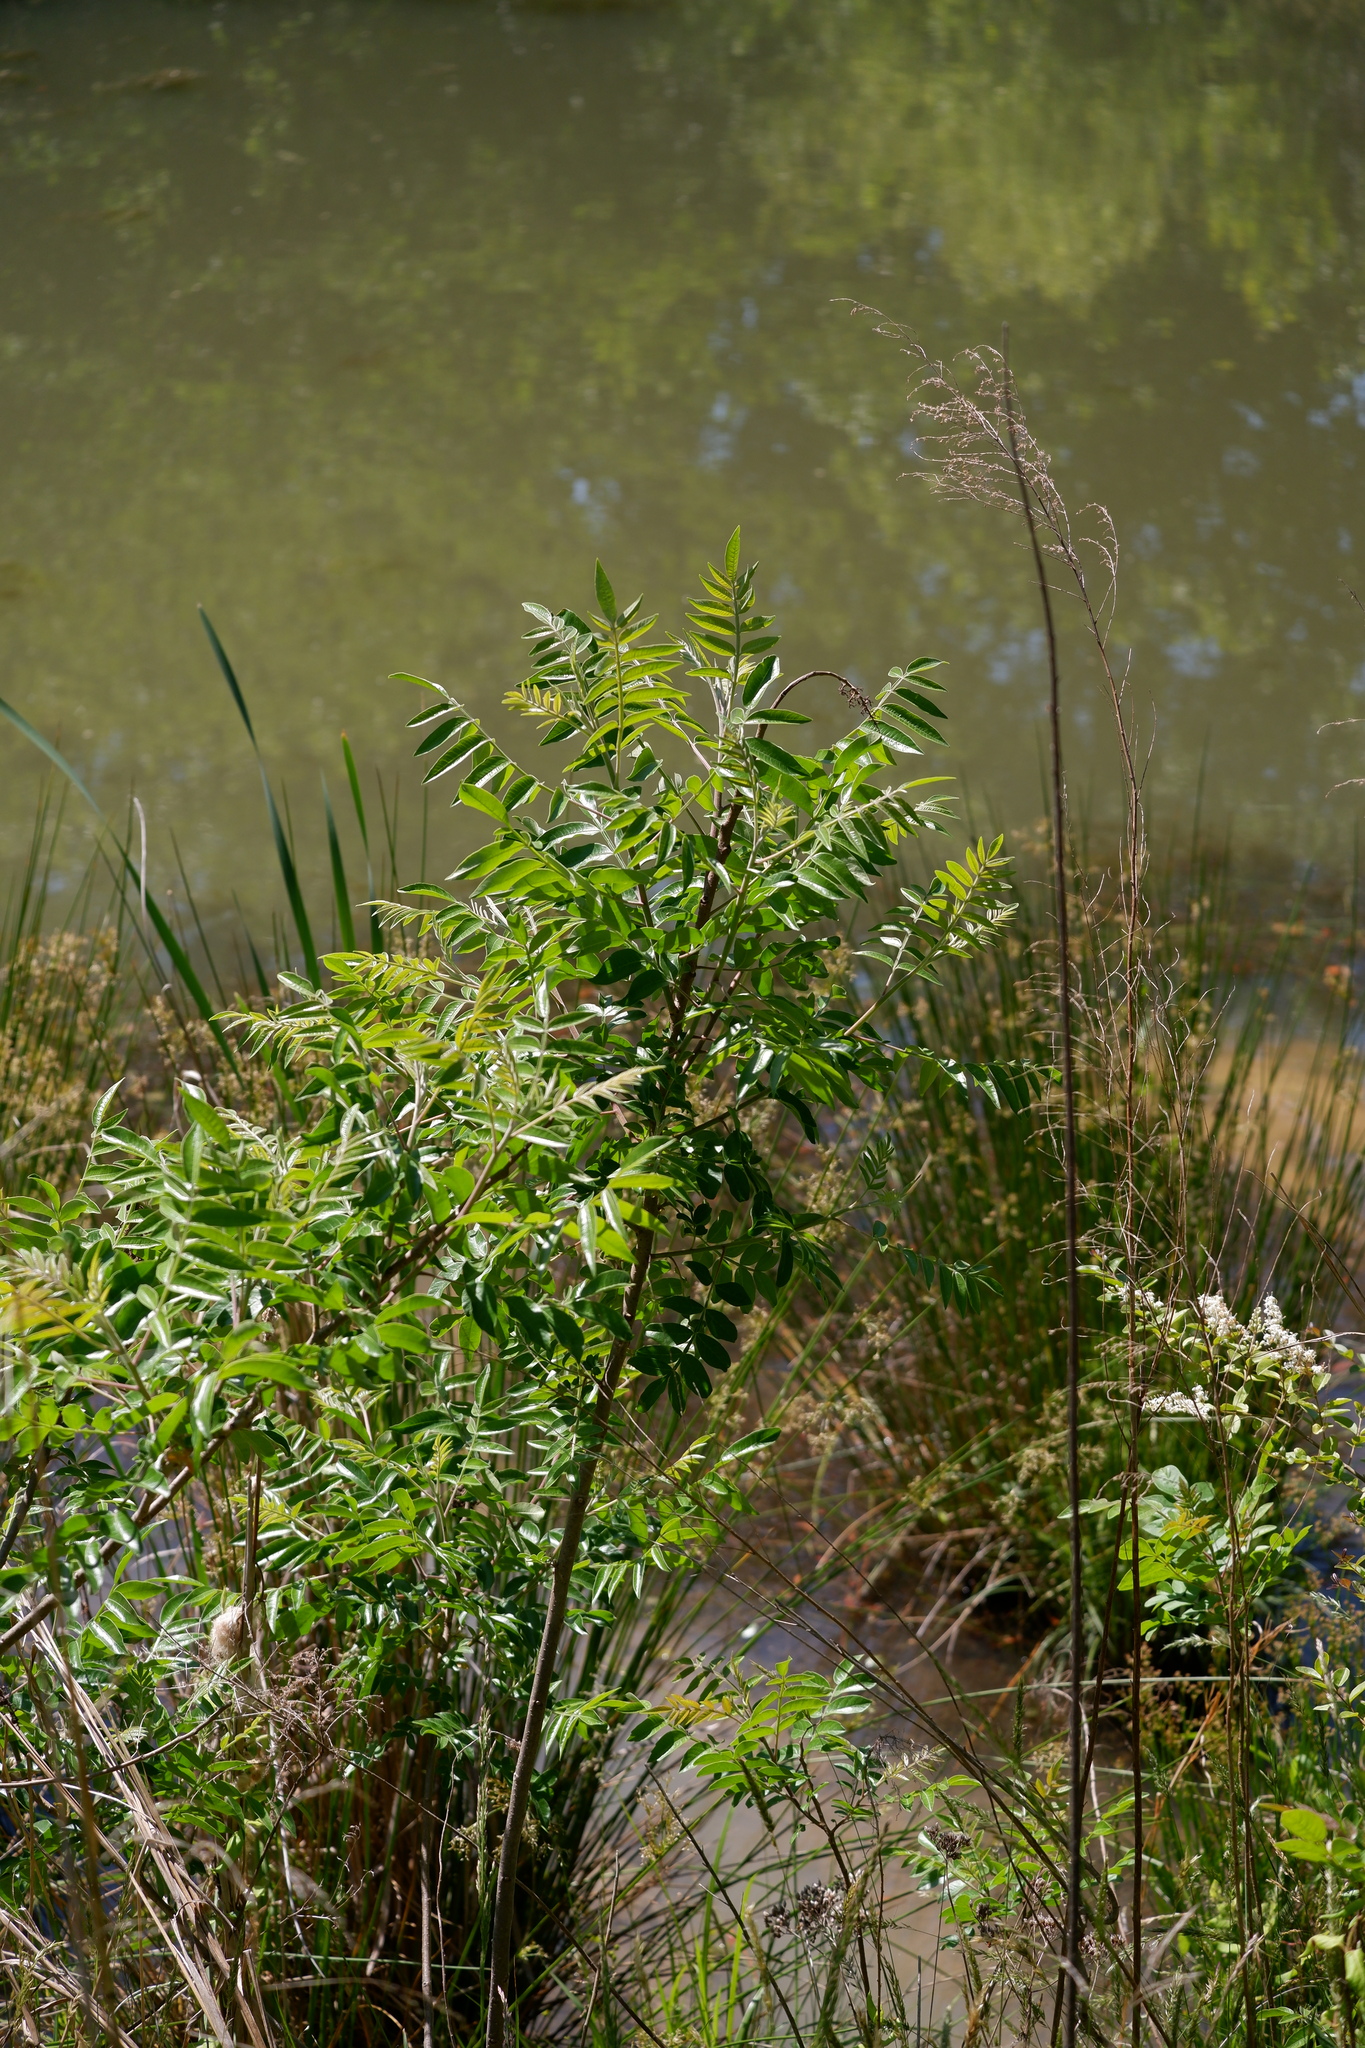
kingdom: Plantae
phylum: Tracheophyta
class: Magnoliopsida
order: Sapindales
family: Anacardiaceae
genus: Rhus
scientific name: Rhus copallina
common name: Shining sumac
